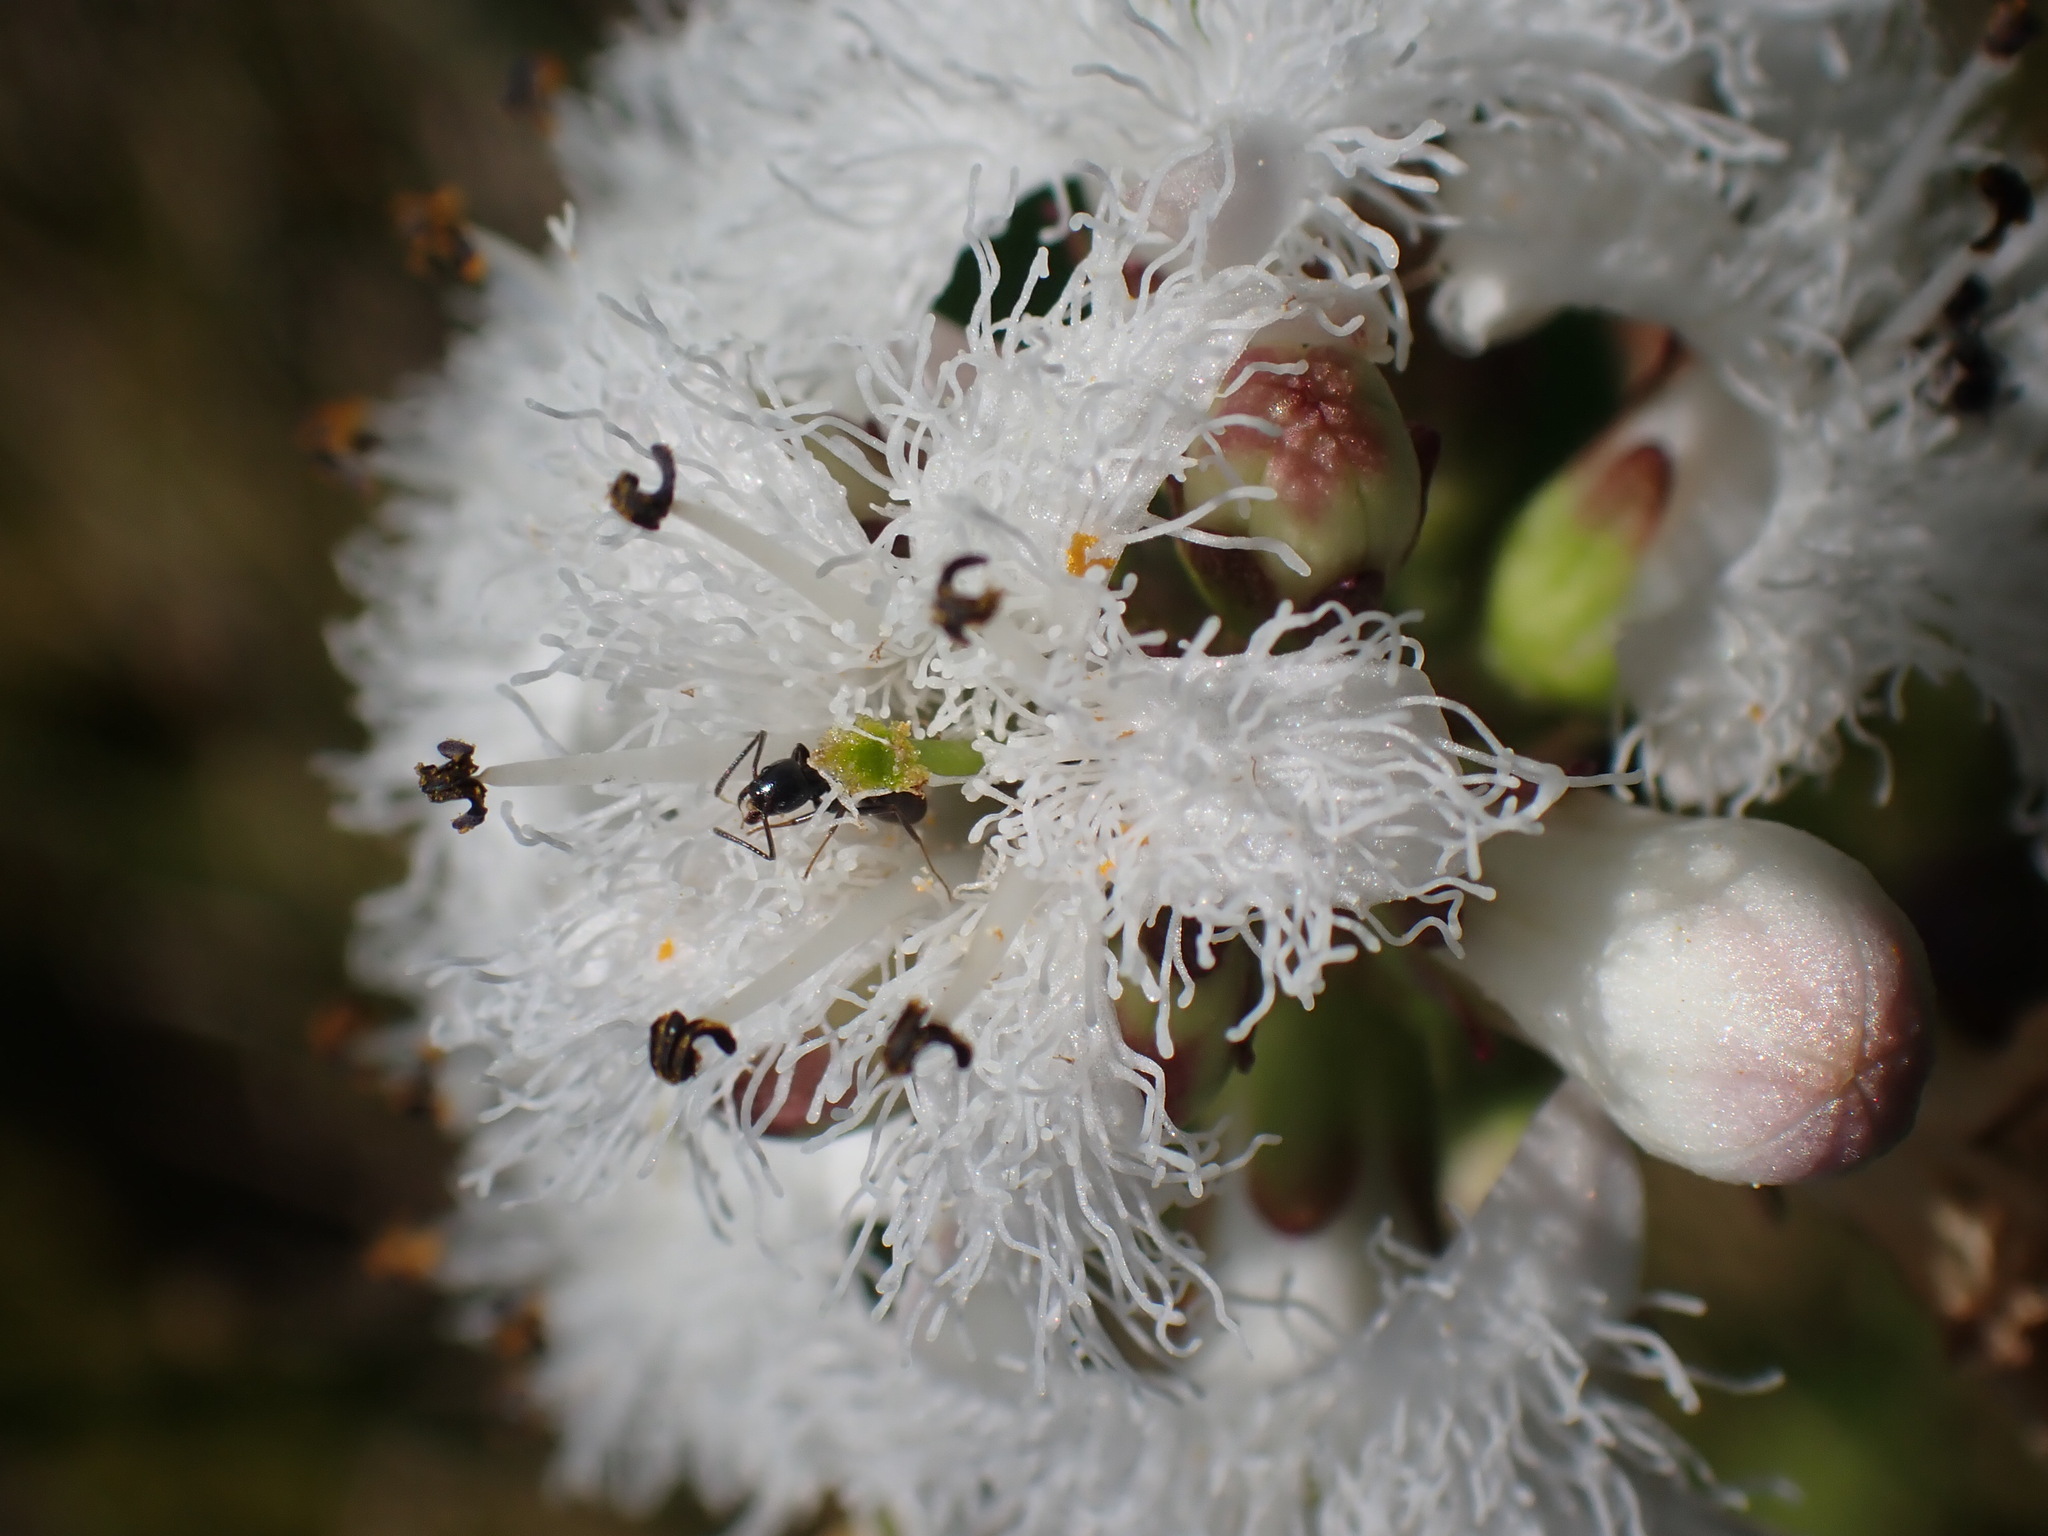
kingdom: Plantae
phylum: Tracheophyta
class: Magnoliopsida
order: Asterales
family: Menyanthaceae
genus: Menyanthes
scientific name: Menyanthes trifoliata
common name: Bogbean
